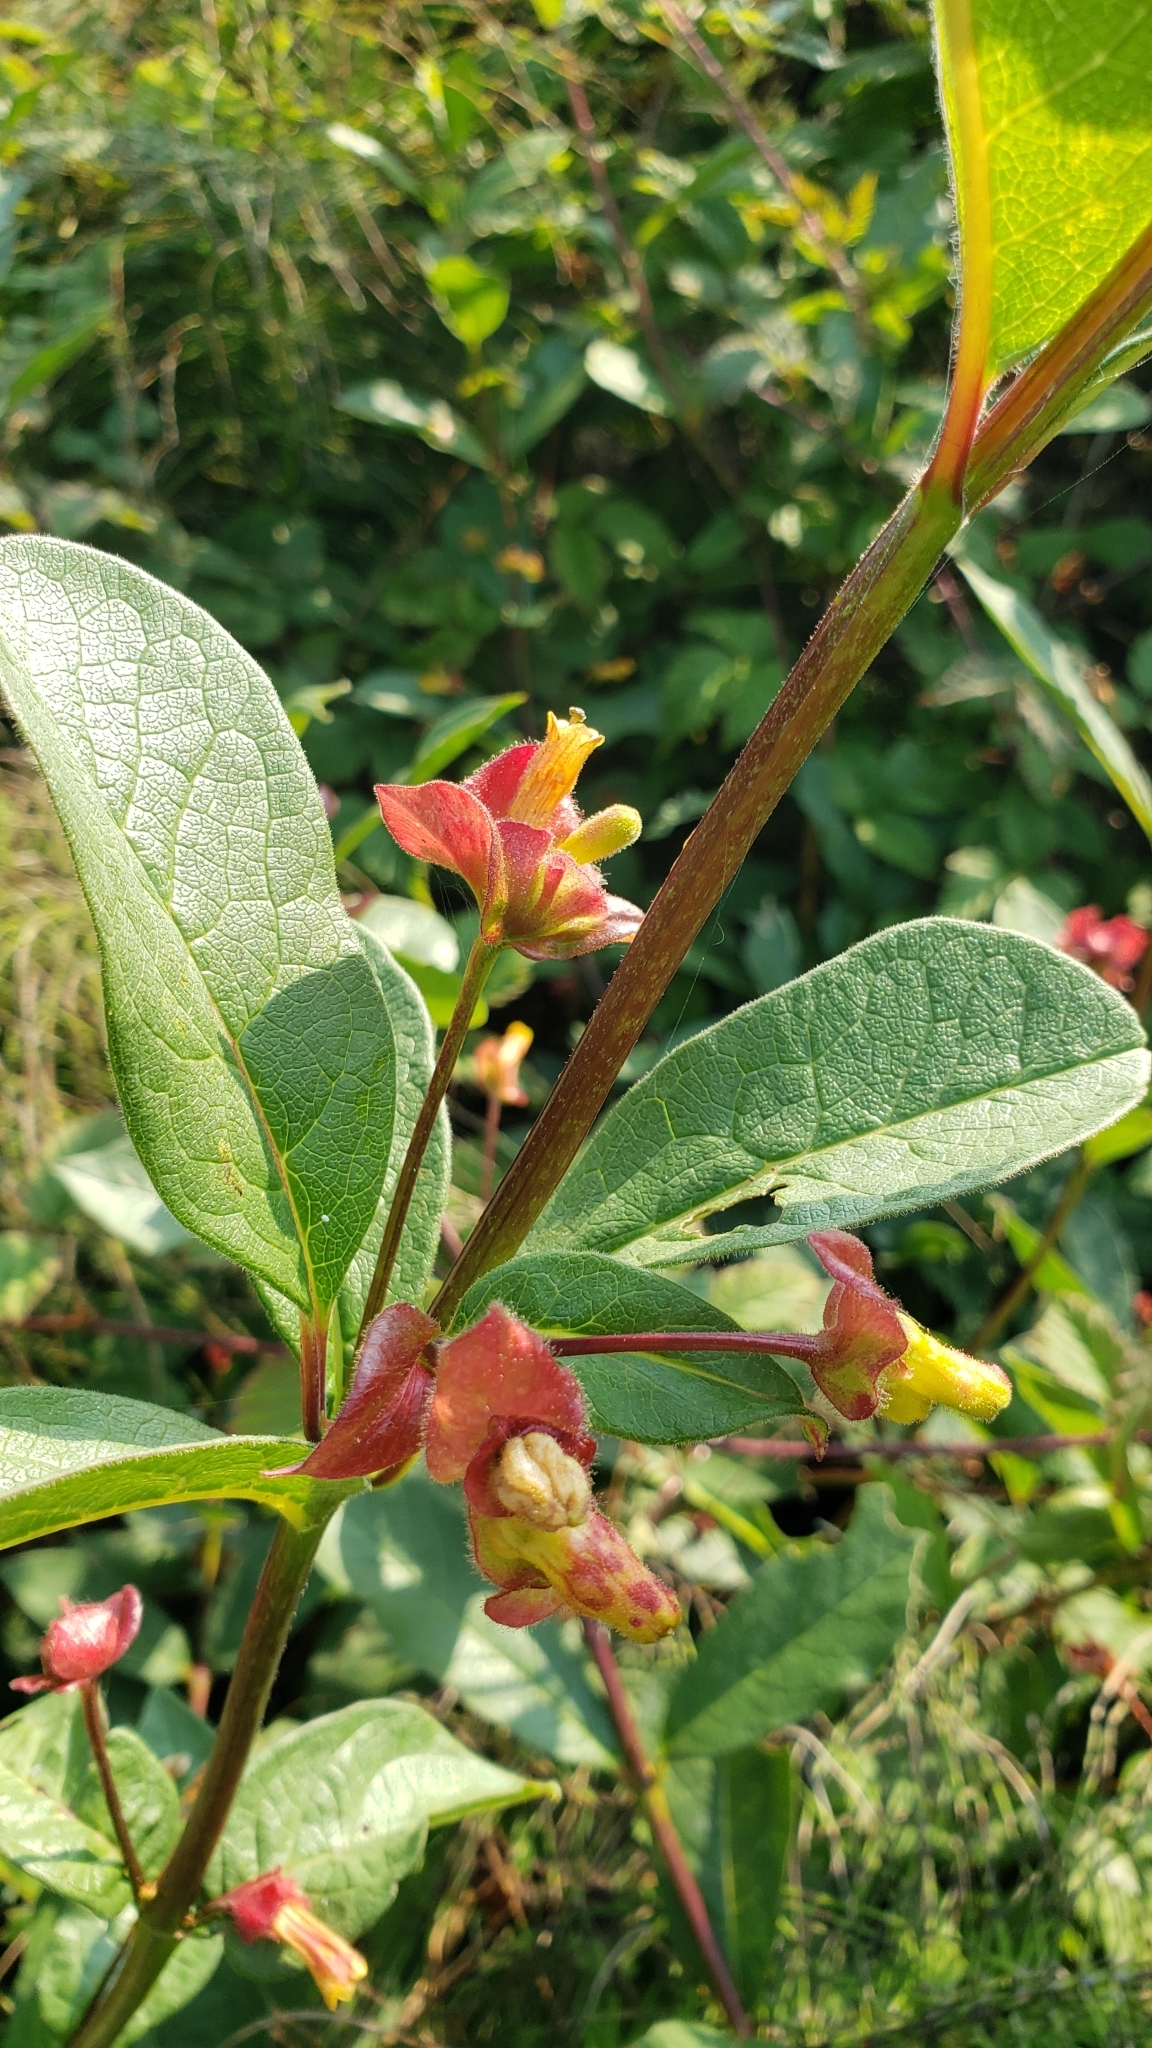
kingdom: Plantae
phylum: Tracheophyta
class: Magnoliopsida
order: Dipsacales
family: Caprifoliaceae
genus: Lonicera
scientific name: Lonicera involucrata
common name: Californian honeysuckle
